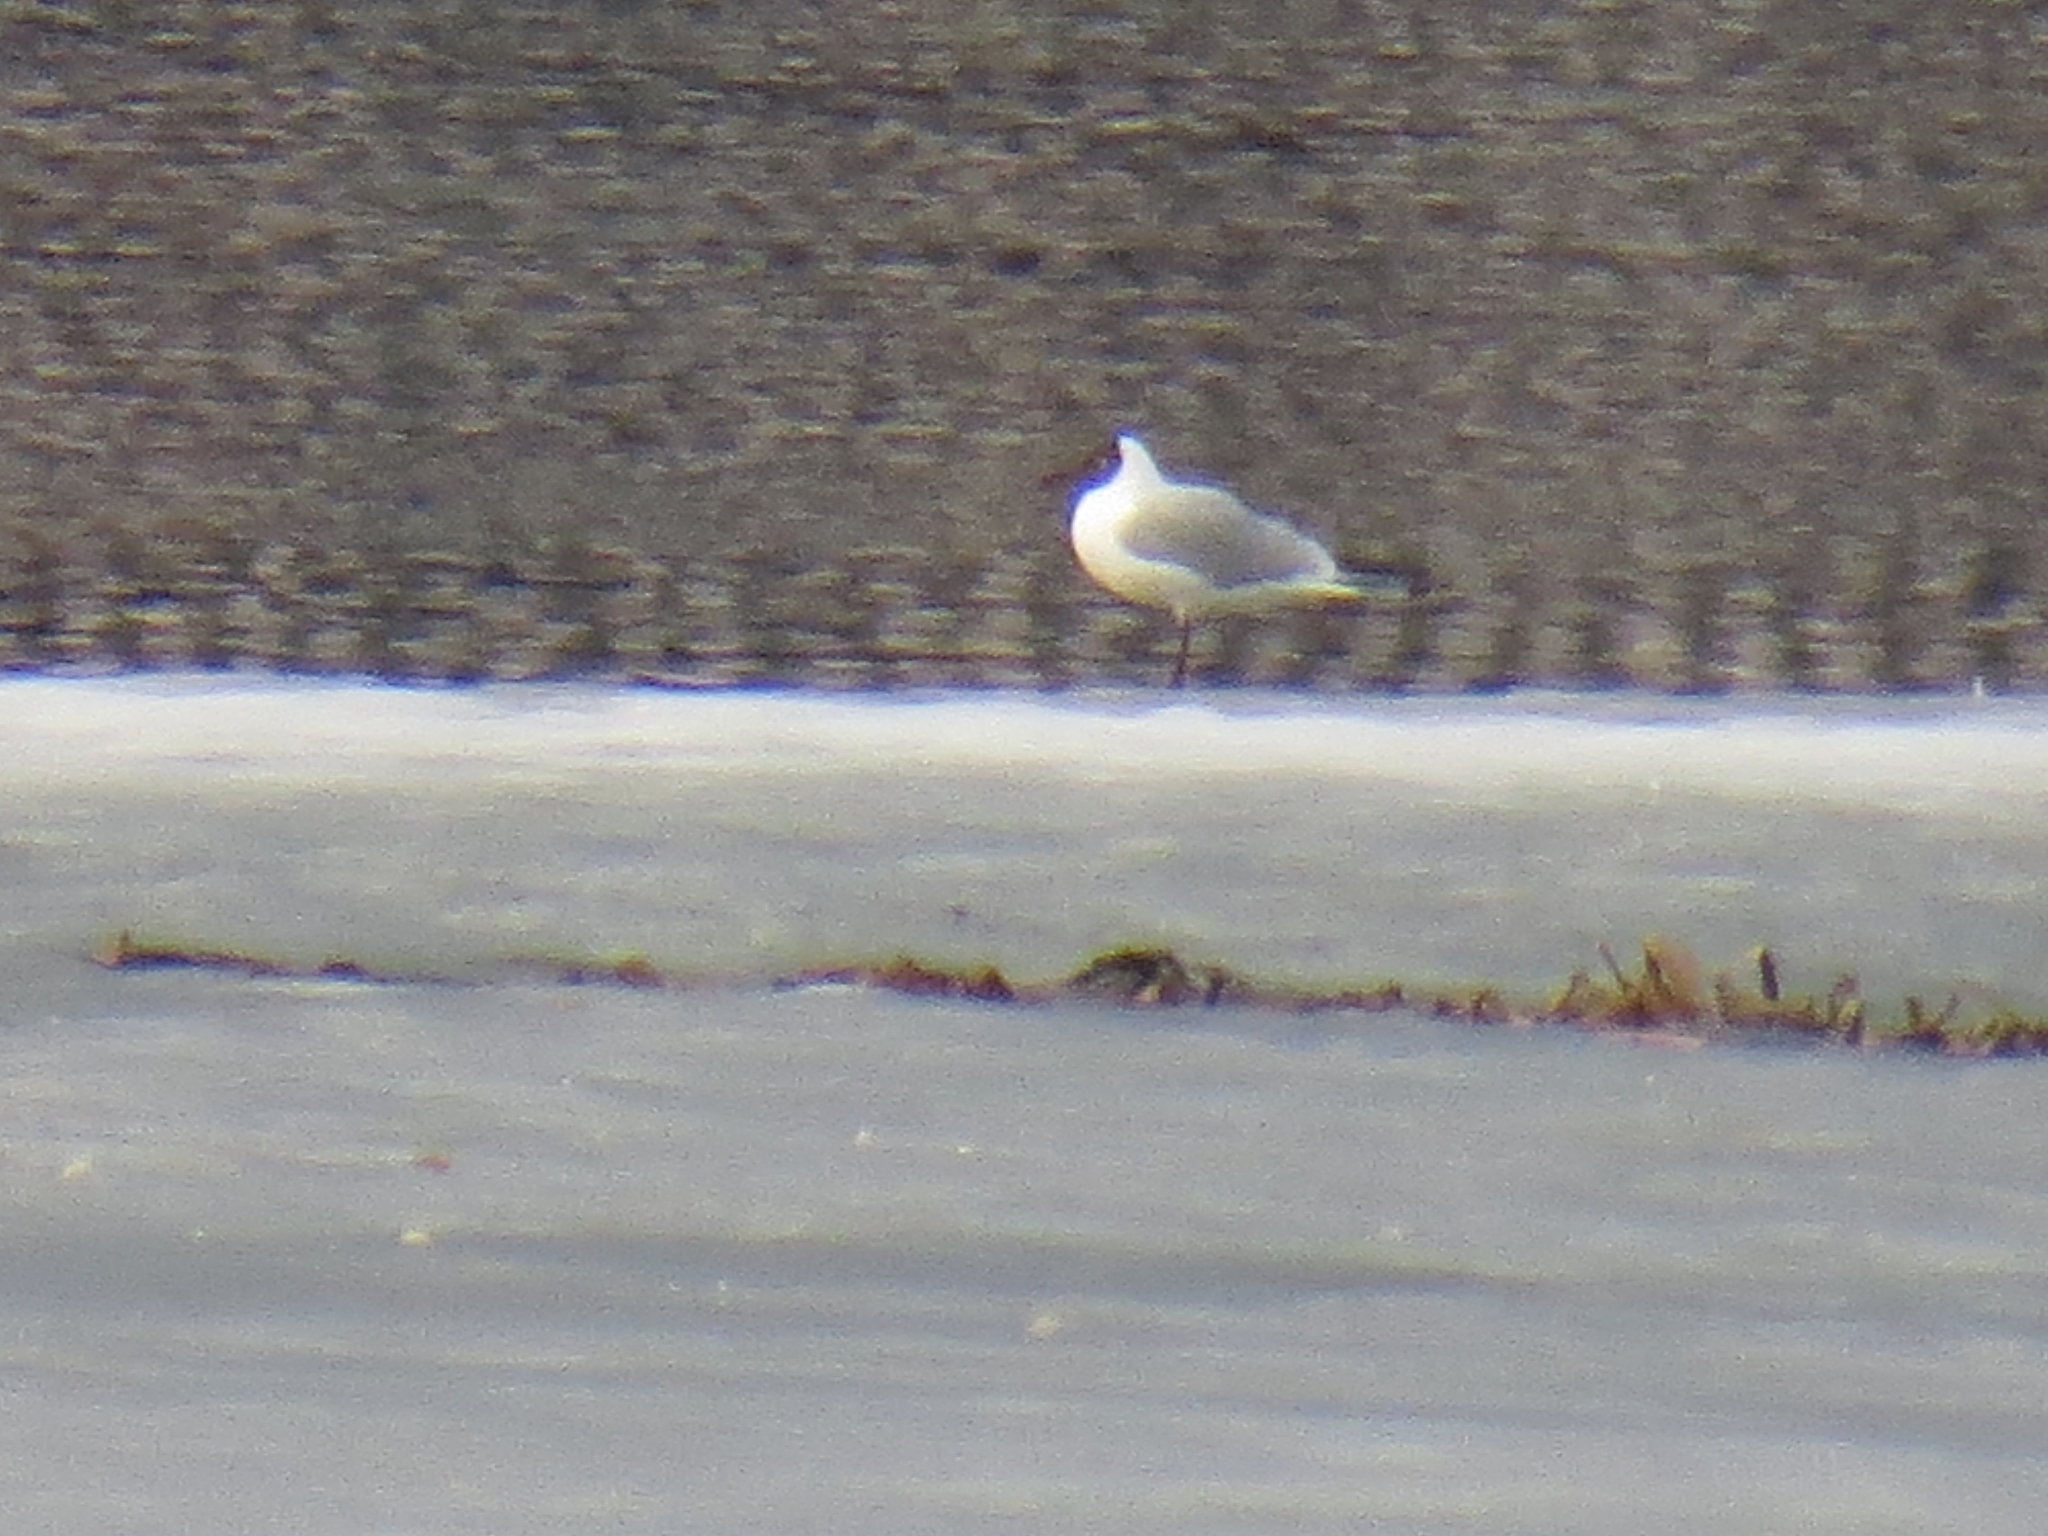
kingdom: Animalia
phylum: Chordata
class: Aves
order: Charadriiformes
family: Laridae
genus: Chroicocephalus
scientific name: Chroicocephalus ridibundus
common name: Black-headed gull
